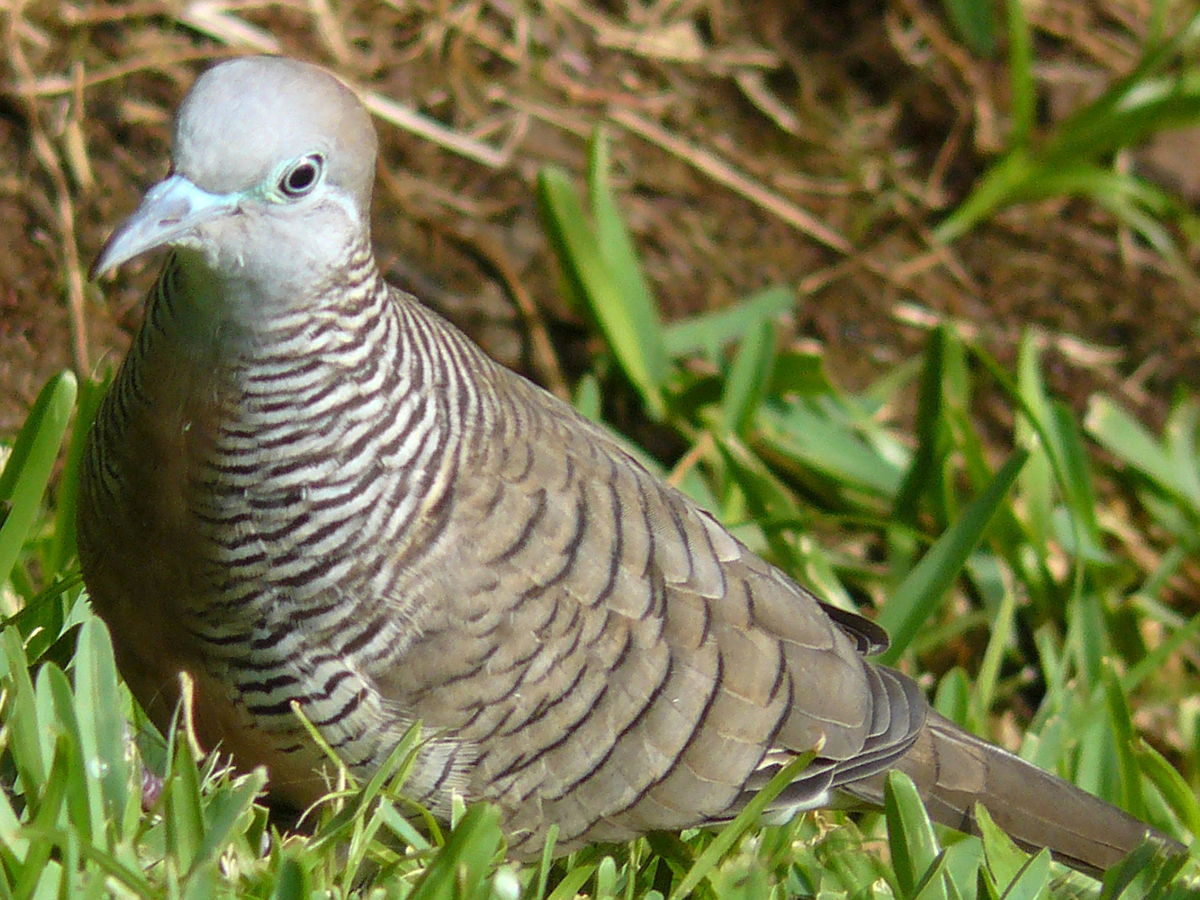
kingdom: Animalia
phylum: Chordata
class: Aves
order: Columbiformes
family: Columbidae
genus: Geopelia
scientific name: Geopelia striata
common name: Zebra dove
